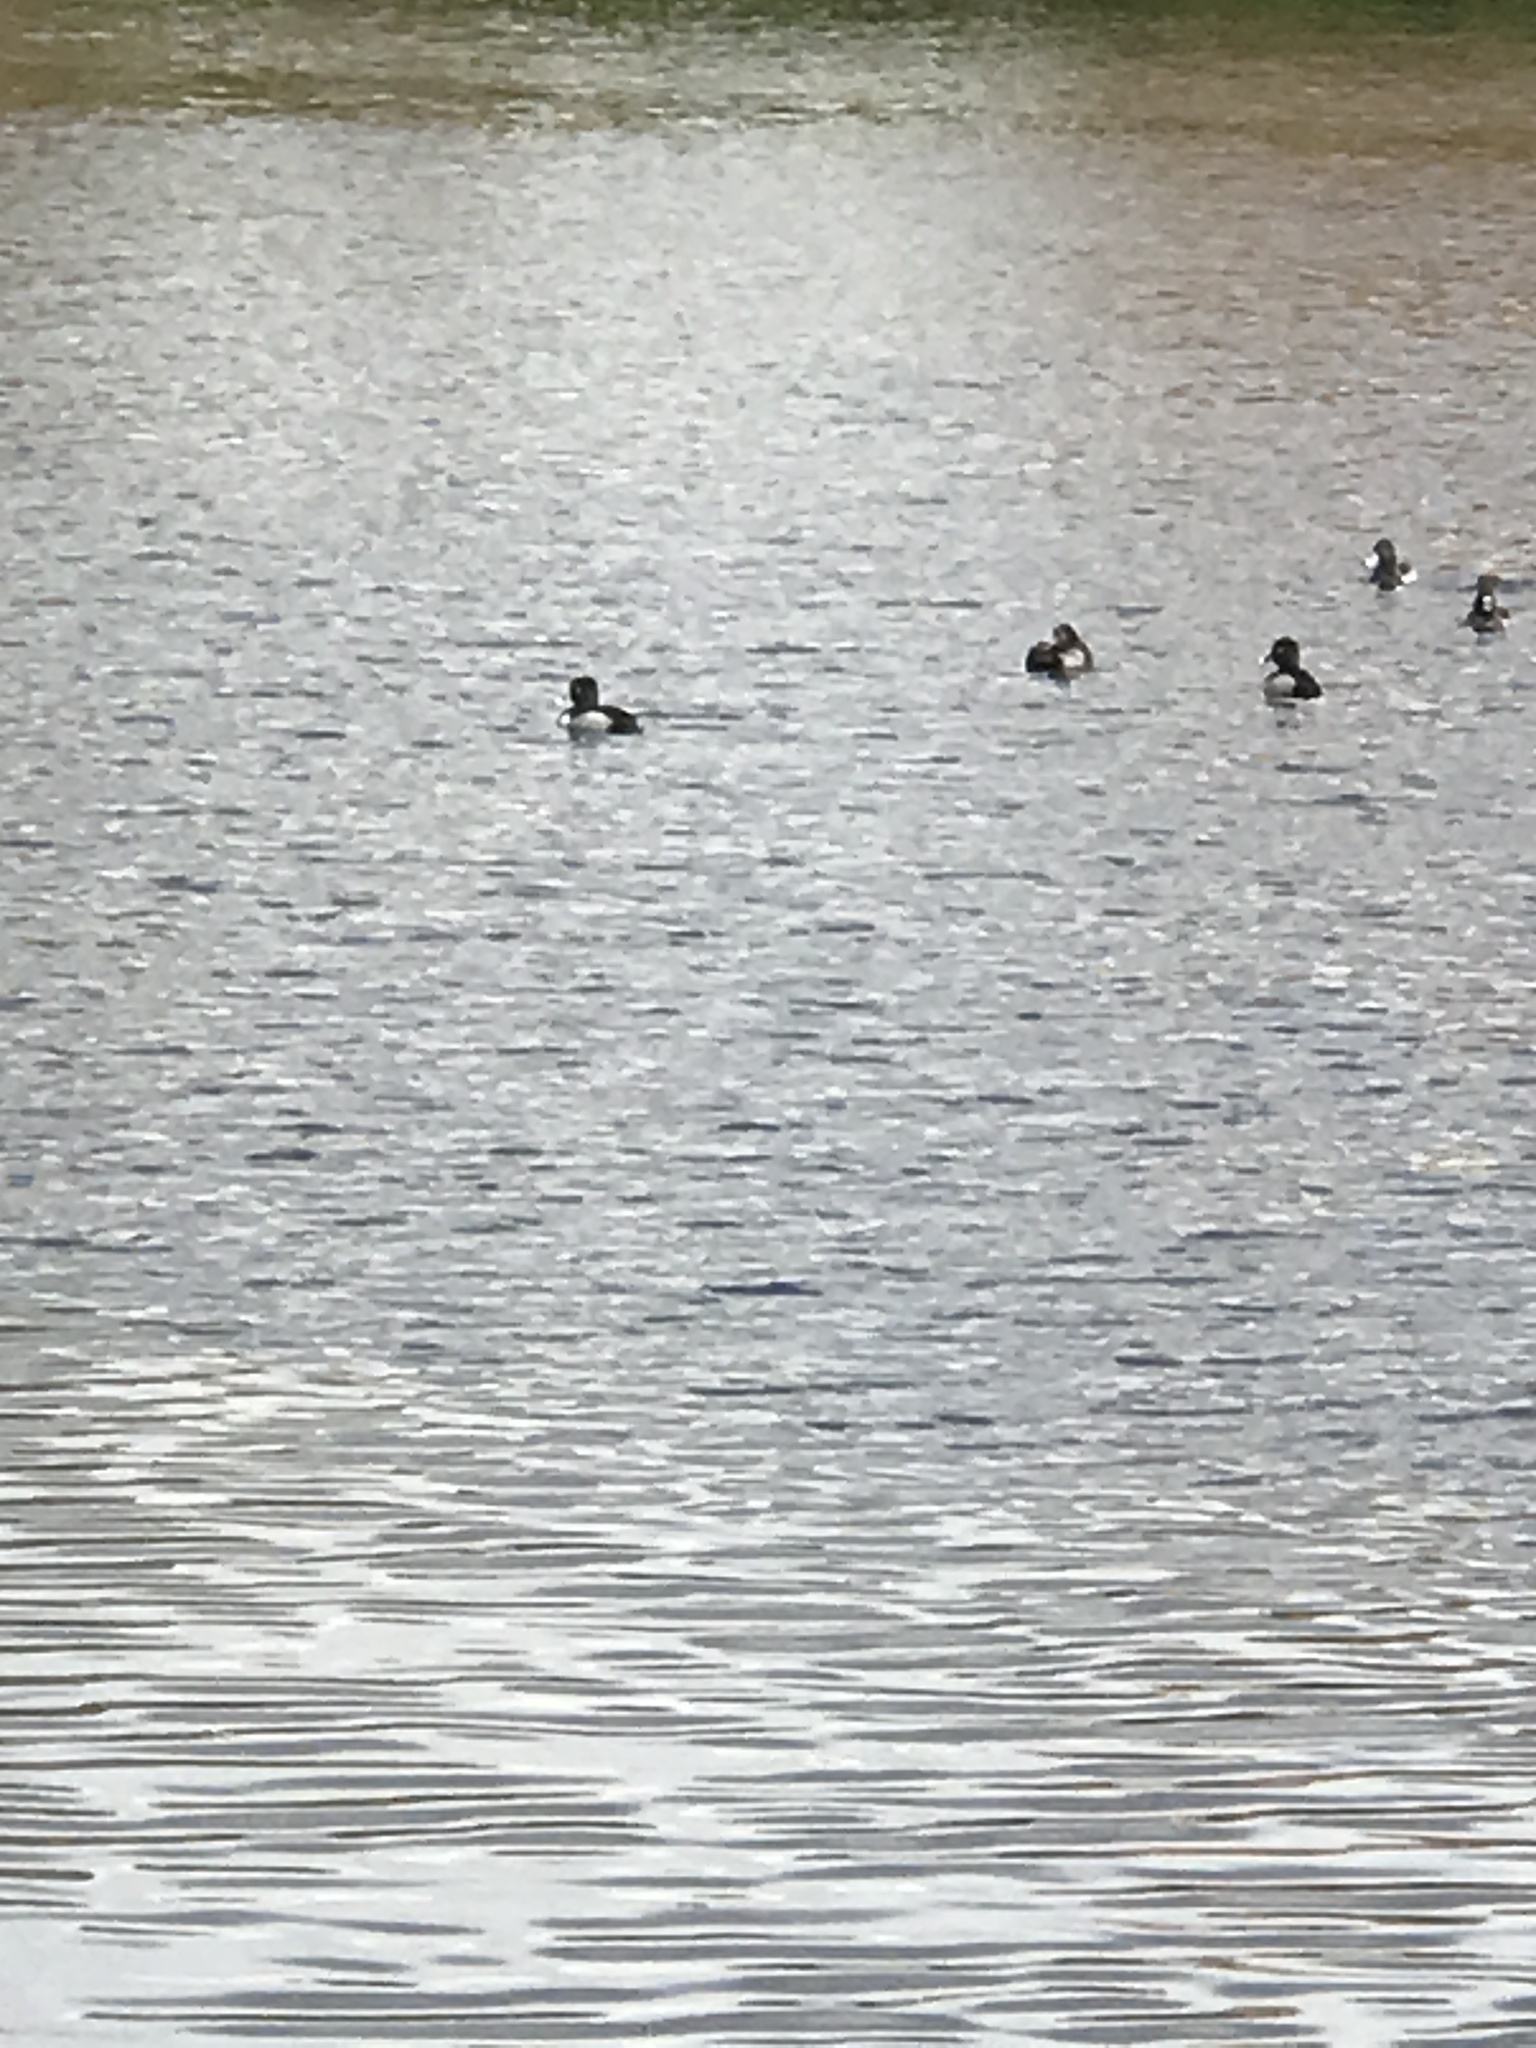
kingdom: Animalia
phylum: Chordata
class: Aves
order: Anseriformes
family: Anatidae
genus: Aythya
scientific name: Aythya collaris
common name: Ring-necked duck
